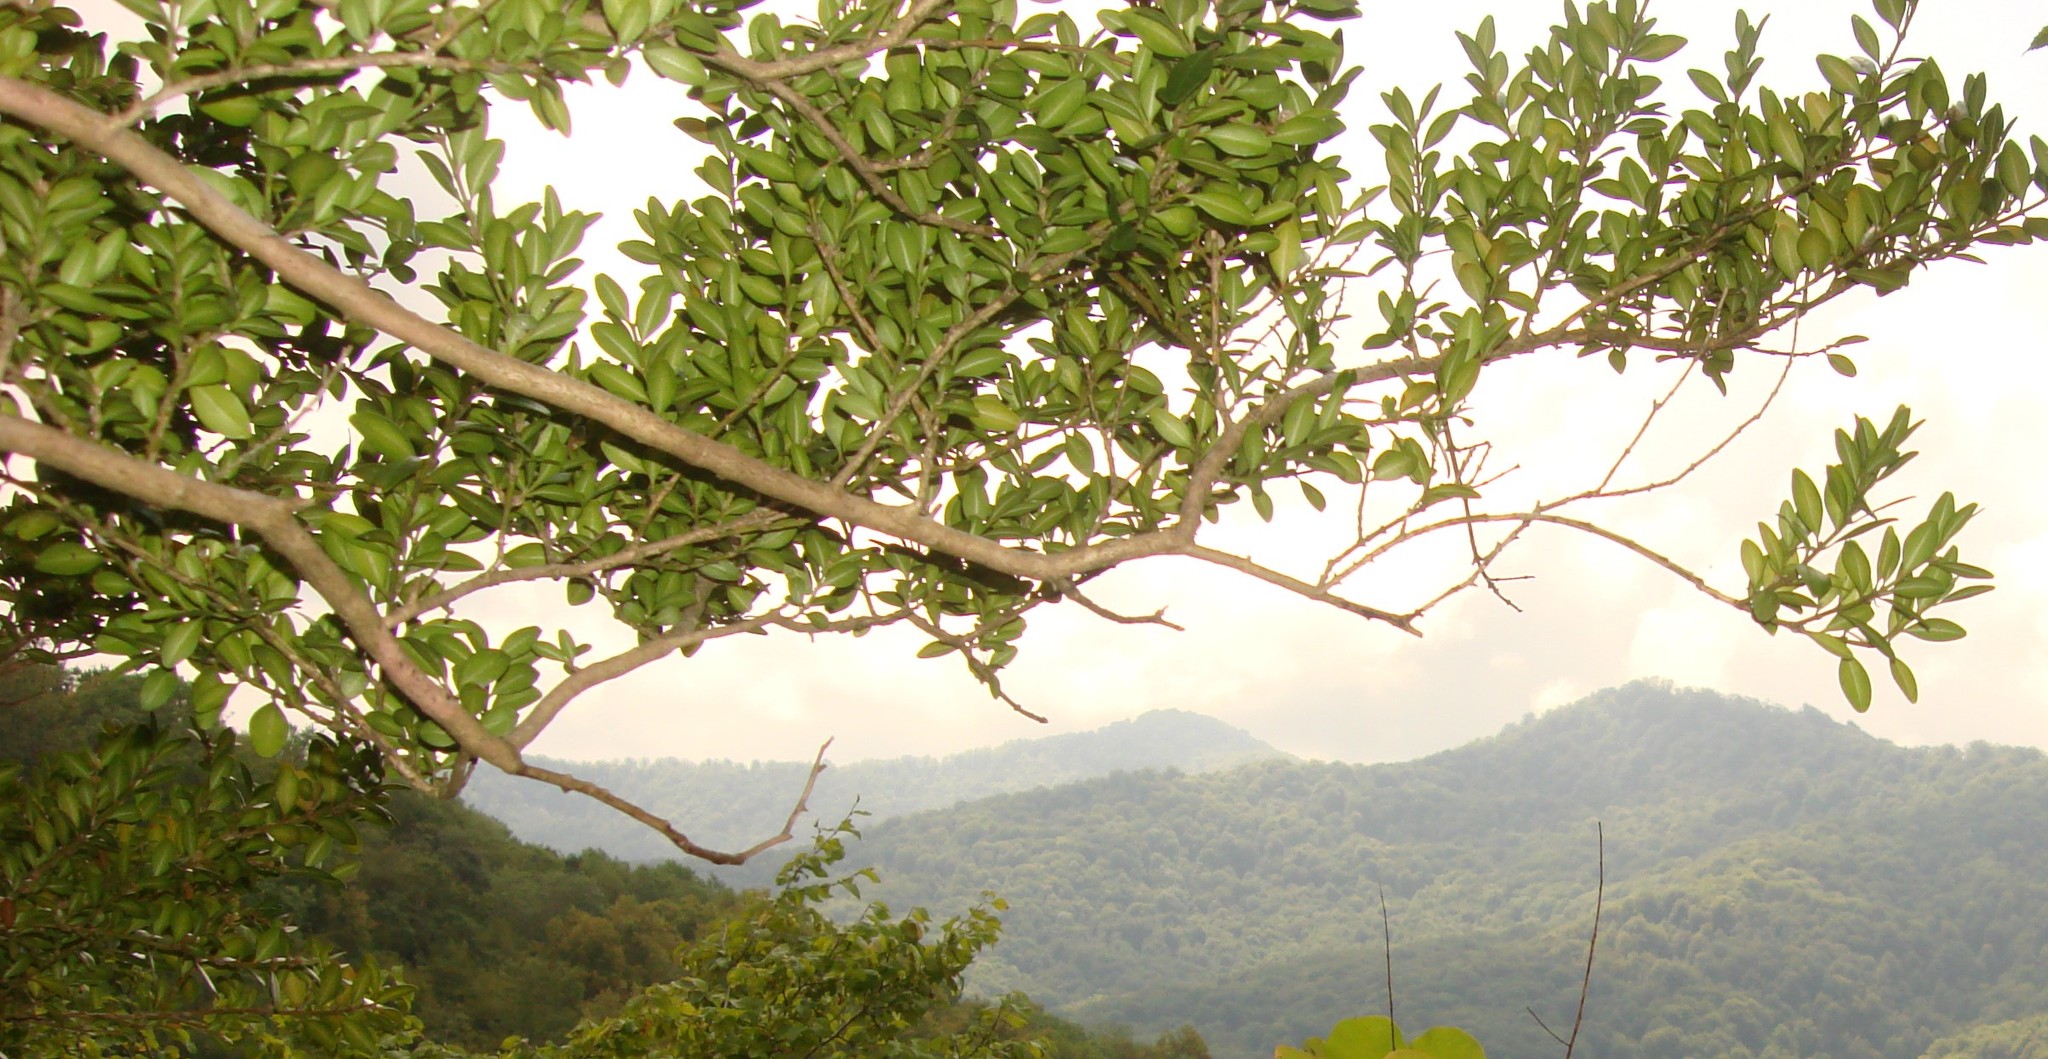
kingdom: Plantae
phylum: Tracheophyta
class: Magnoliopsida
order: Buxales
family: Buxaceae
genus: Buxus
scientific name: Buxus sempervirens
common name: Box
